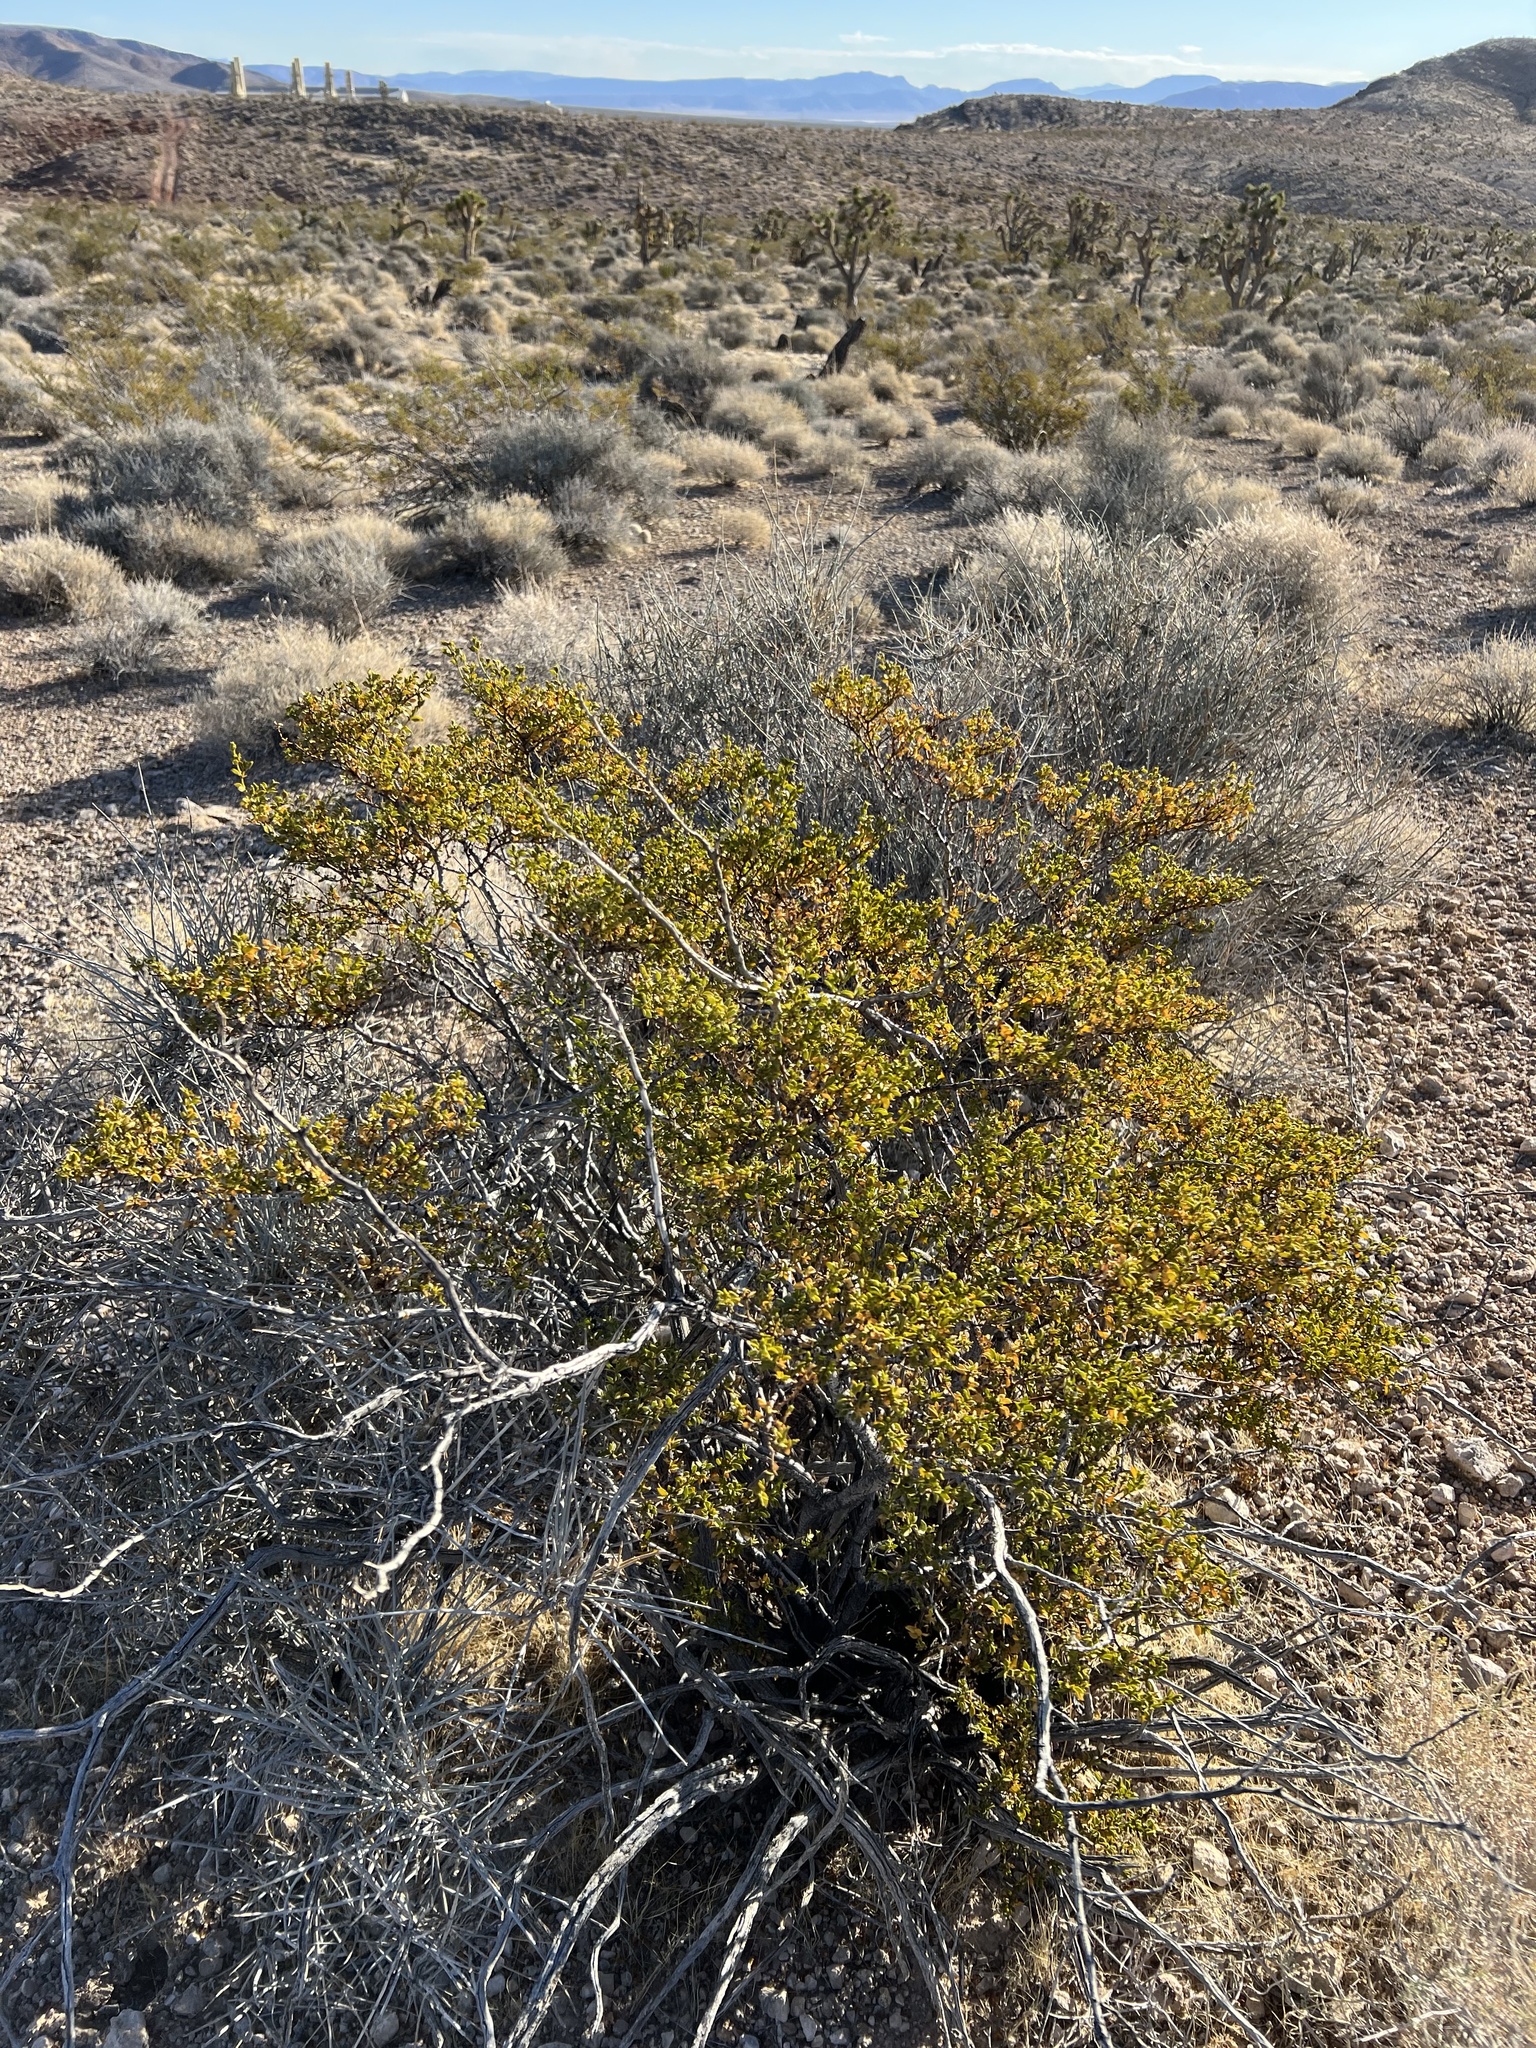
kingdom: Plantae
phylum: Tracheophyta
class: Magnoliopsida
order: Zygophyllales
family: Zygophyllaceae
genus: Larrea
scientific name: Larrea tridentata
